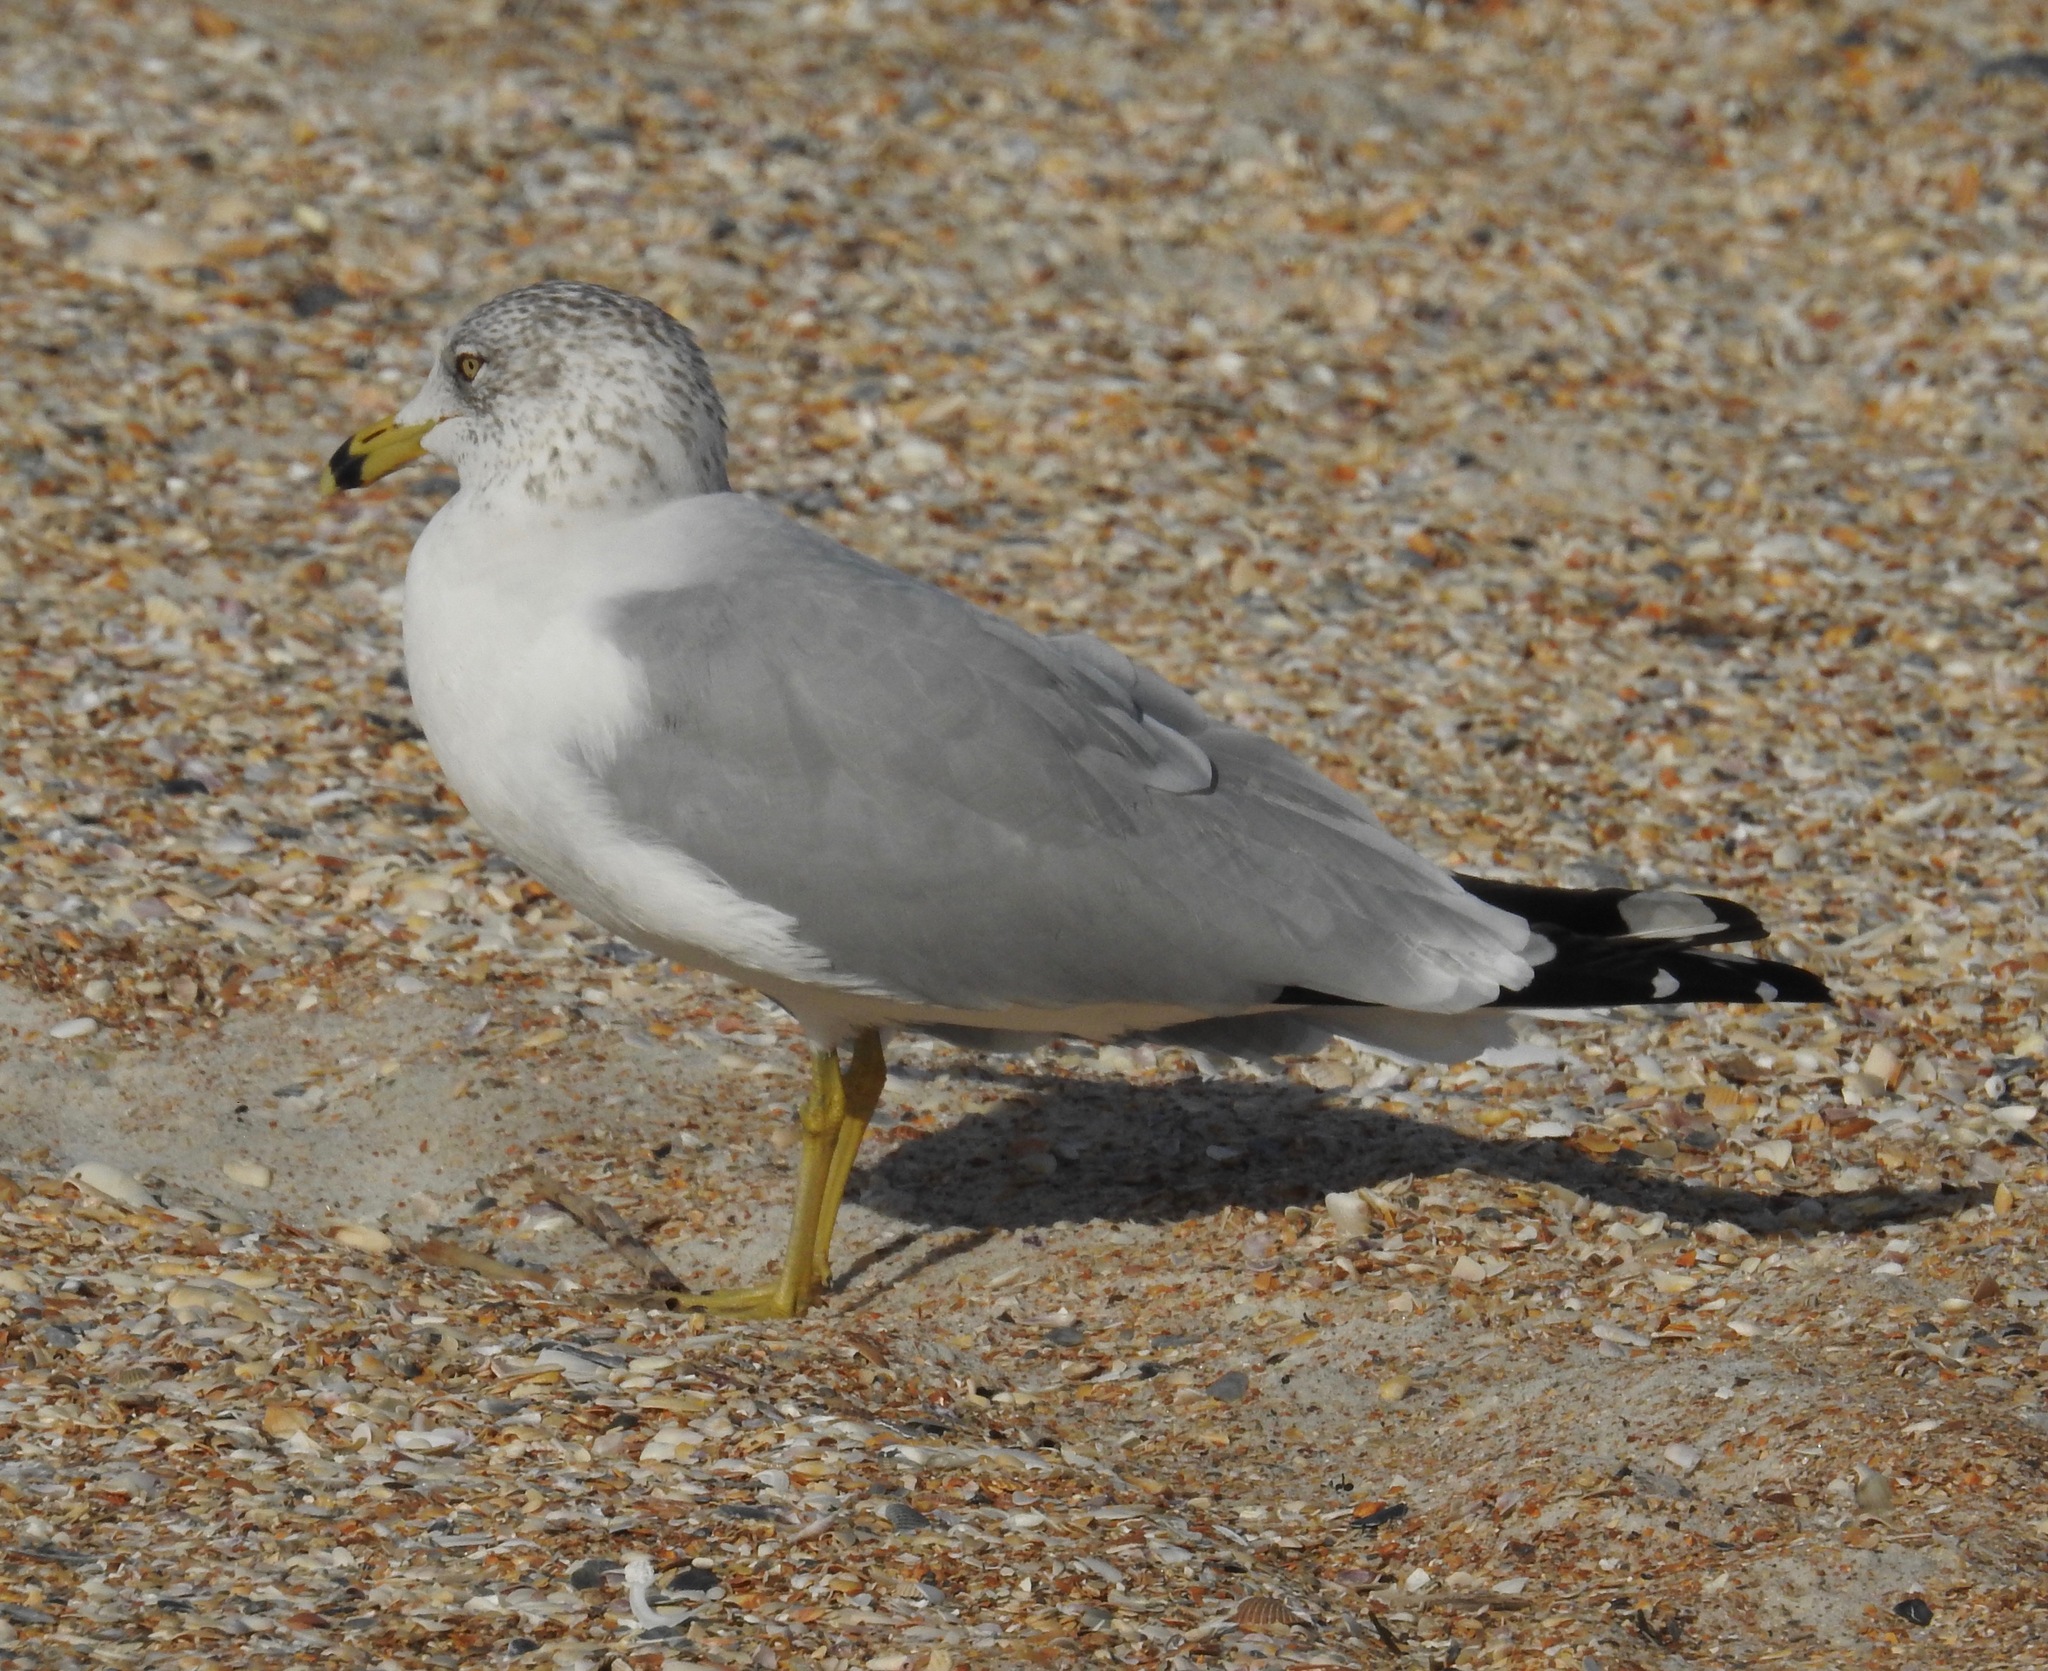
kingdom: Animalia
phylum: Chordata
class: Aves
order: Charadriiformes
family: Laridae
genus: Larus
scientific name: Larus delawarensis
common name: Ring-billed gull
